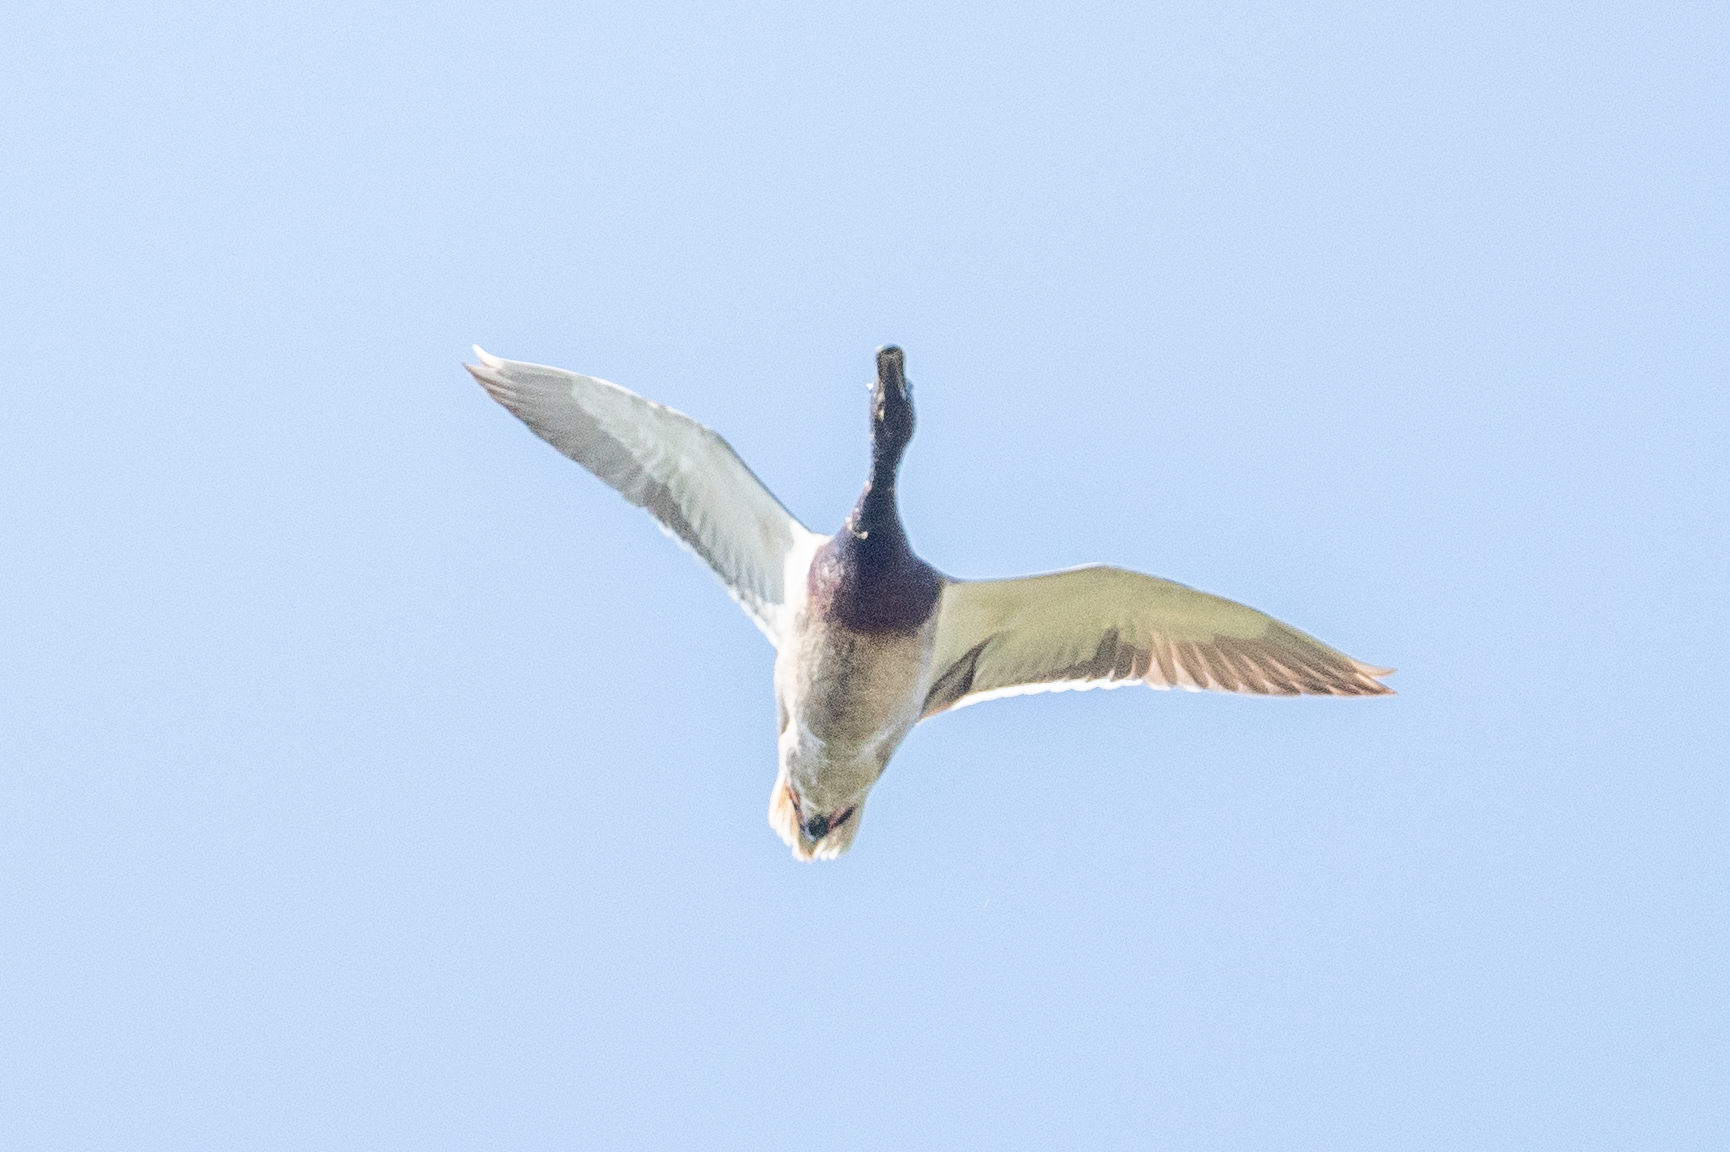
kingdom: Animalia
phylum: Chordata
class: Aves
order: Anseriformes
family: Anatidae
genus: Anas
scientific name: Anas platyrhynchos
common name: Mallard
